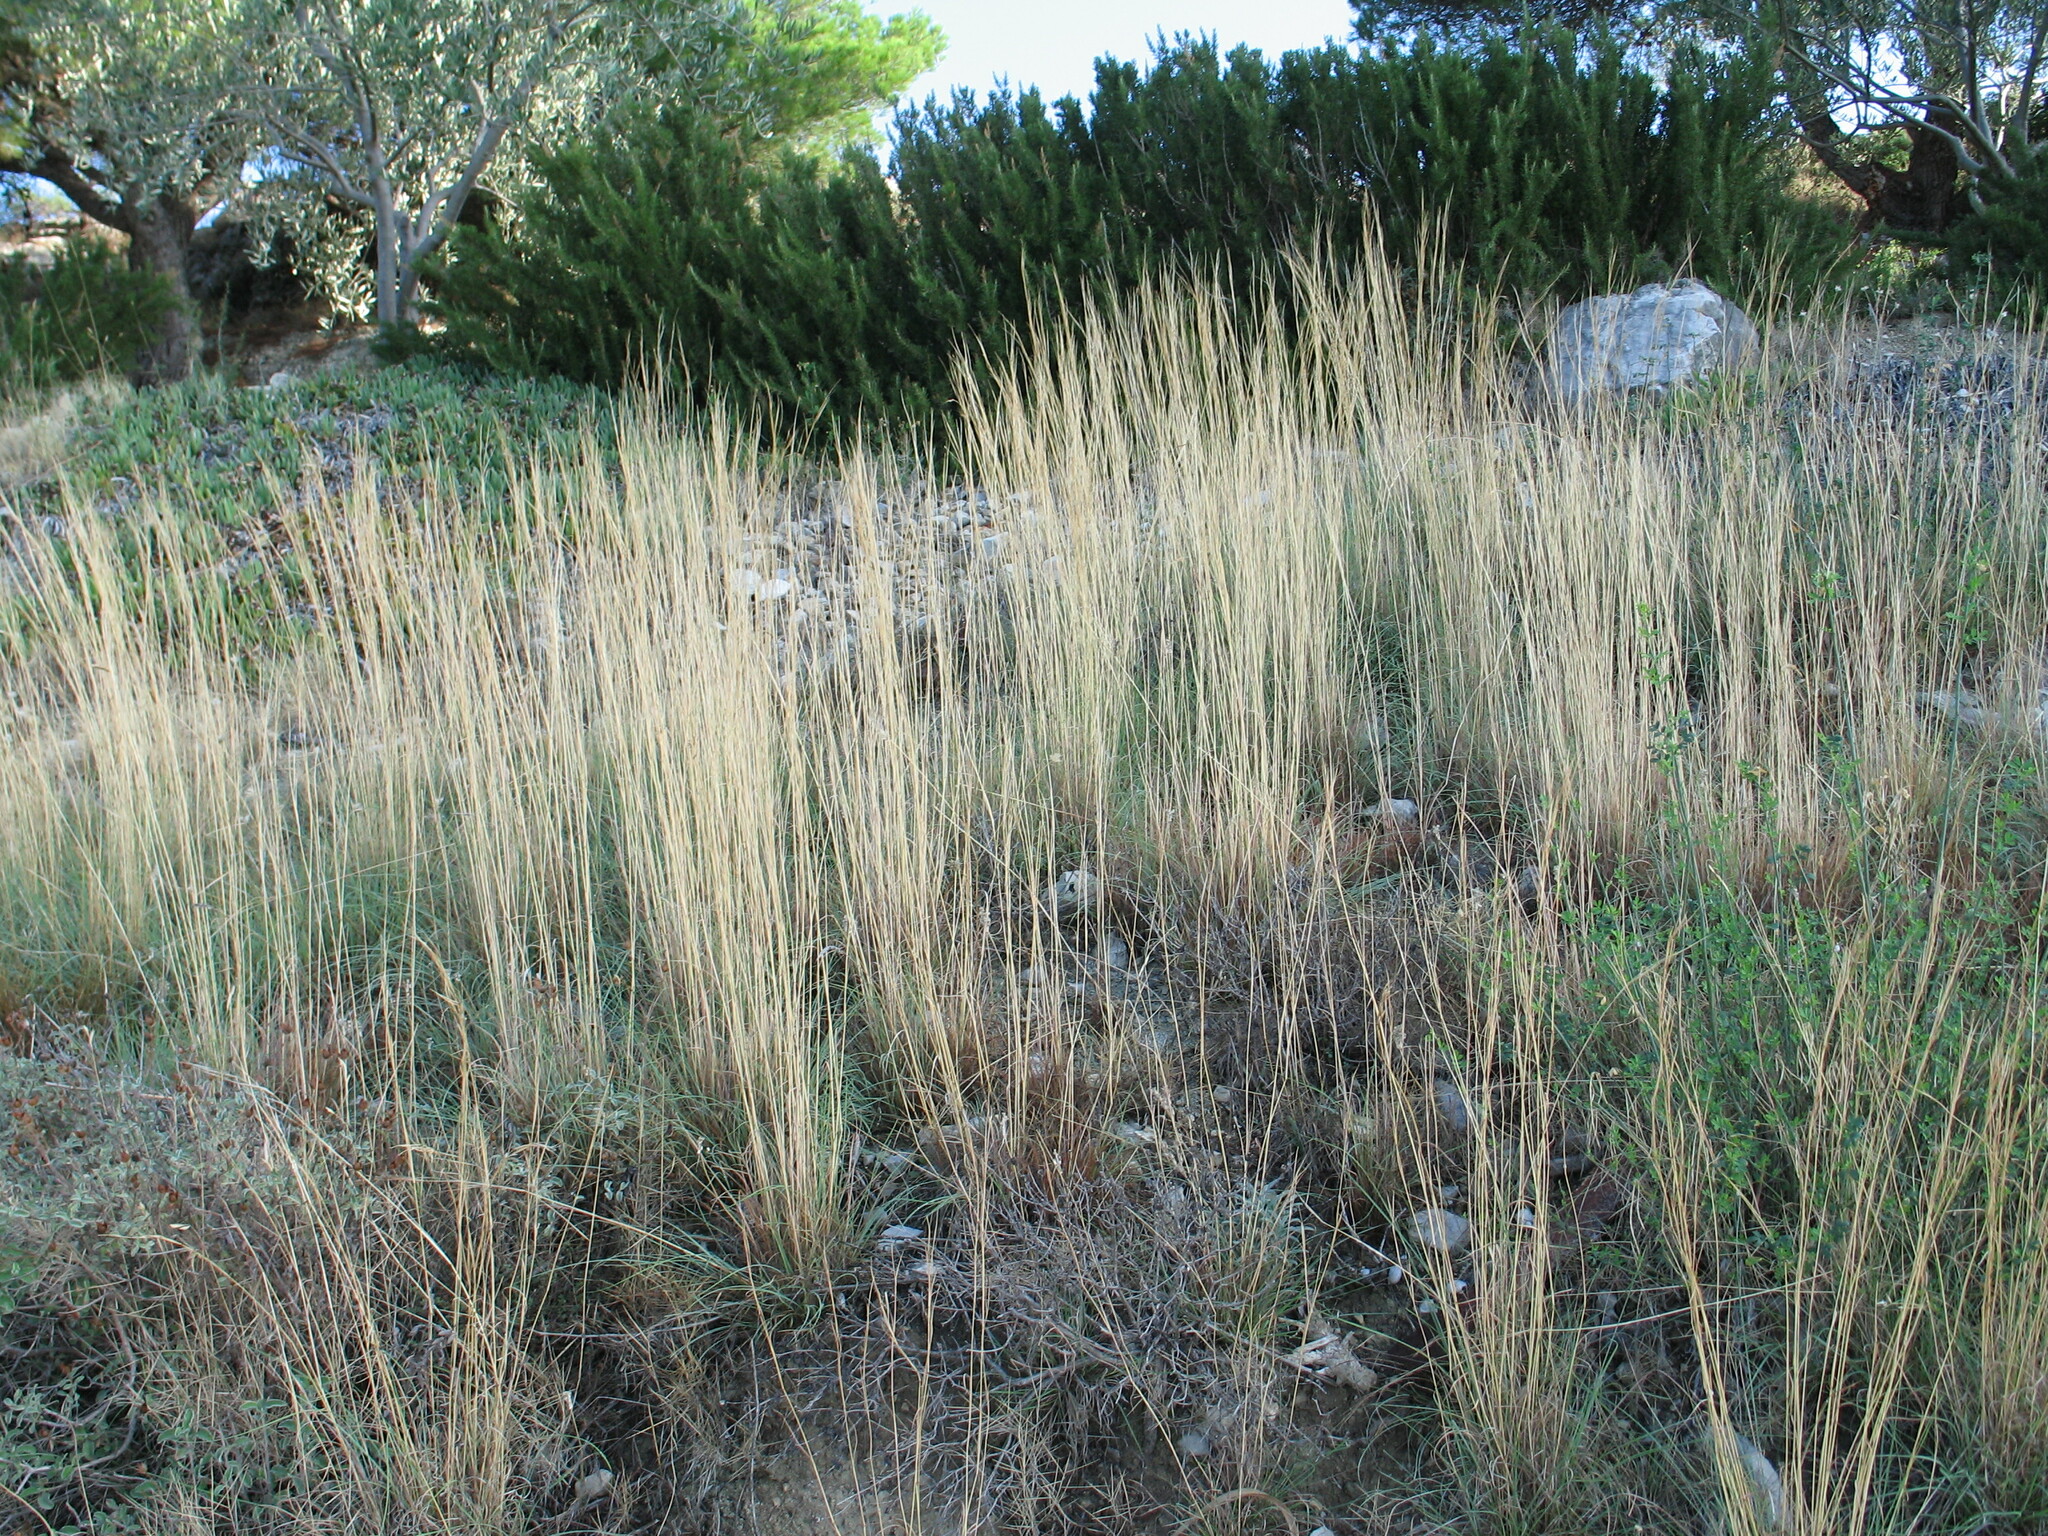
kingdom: Plantae
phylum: Tracheophyta
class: Liliopsida
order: Poales
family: Poaceae
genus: Hyparrhenia
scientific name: Hyparrhenia hirta
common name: Thatching grass
